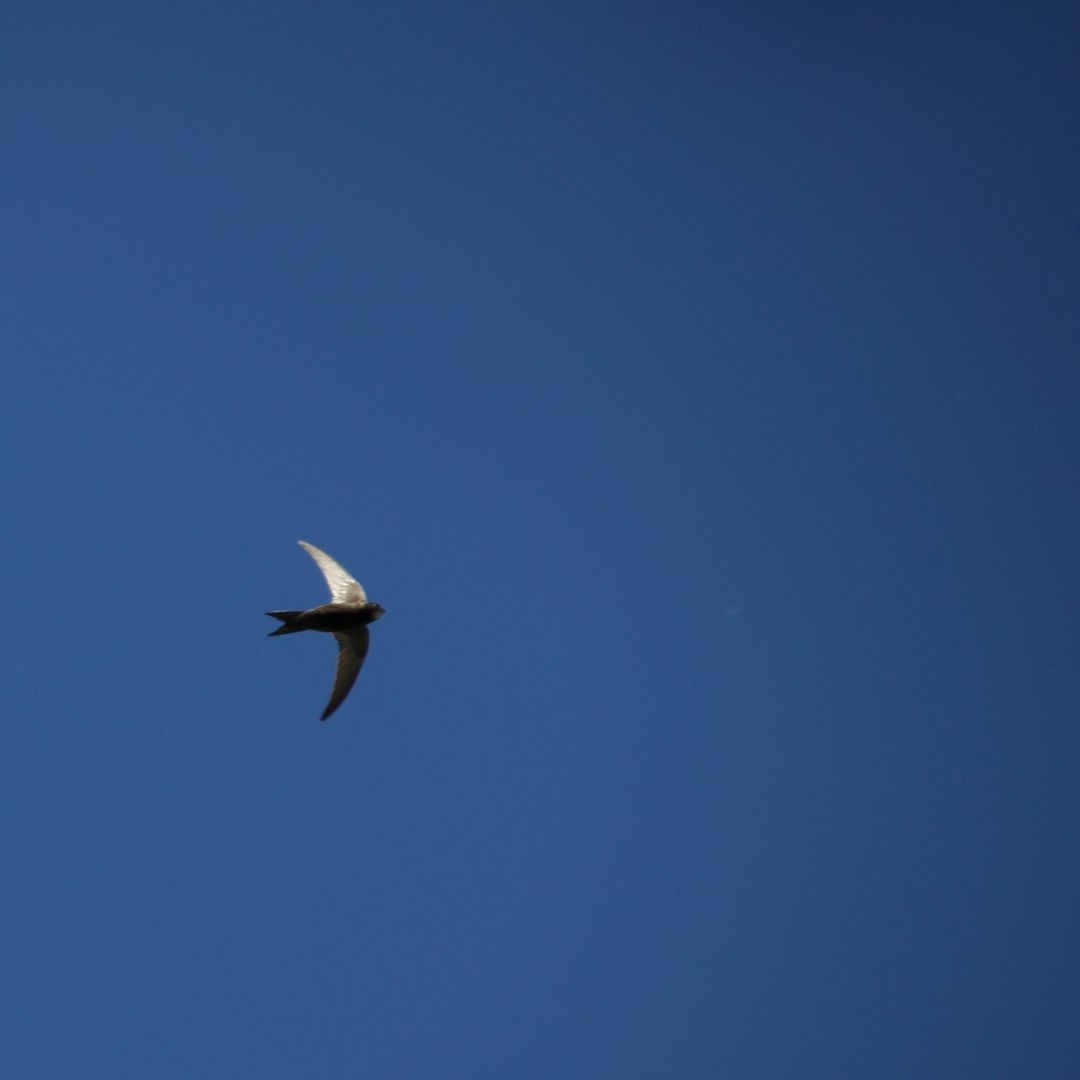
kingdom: Animalia
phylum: Chordata
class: Aves
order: Apodiformes
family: Apodidae
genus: Apus
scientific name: Apus apus
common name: Common swift
